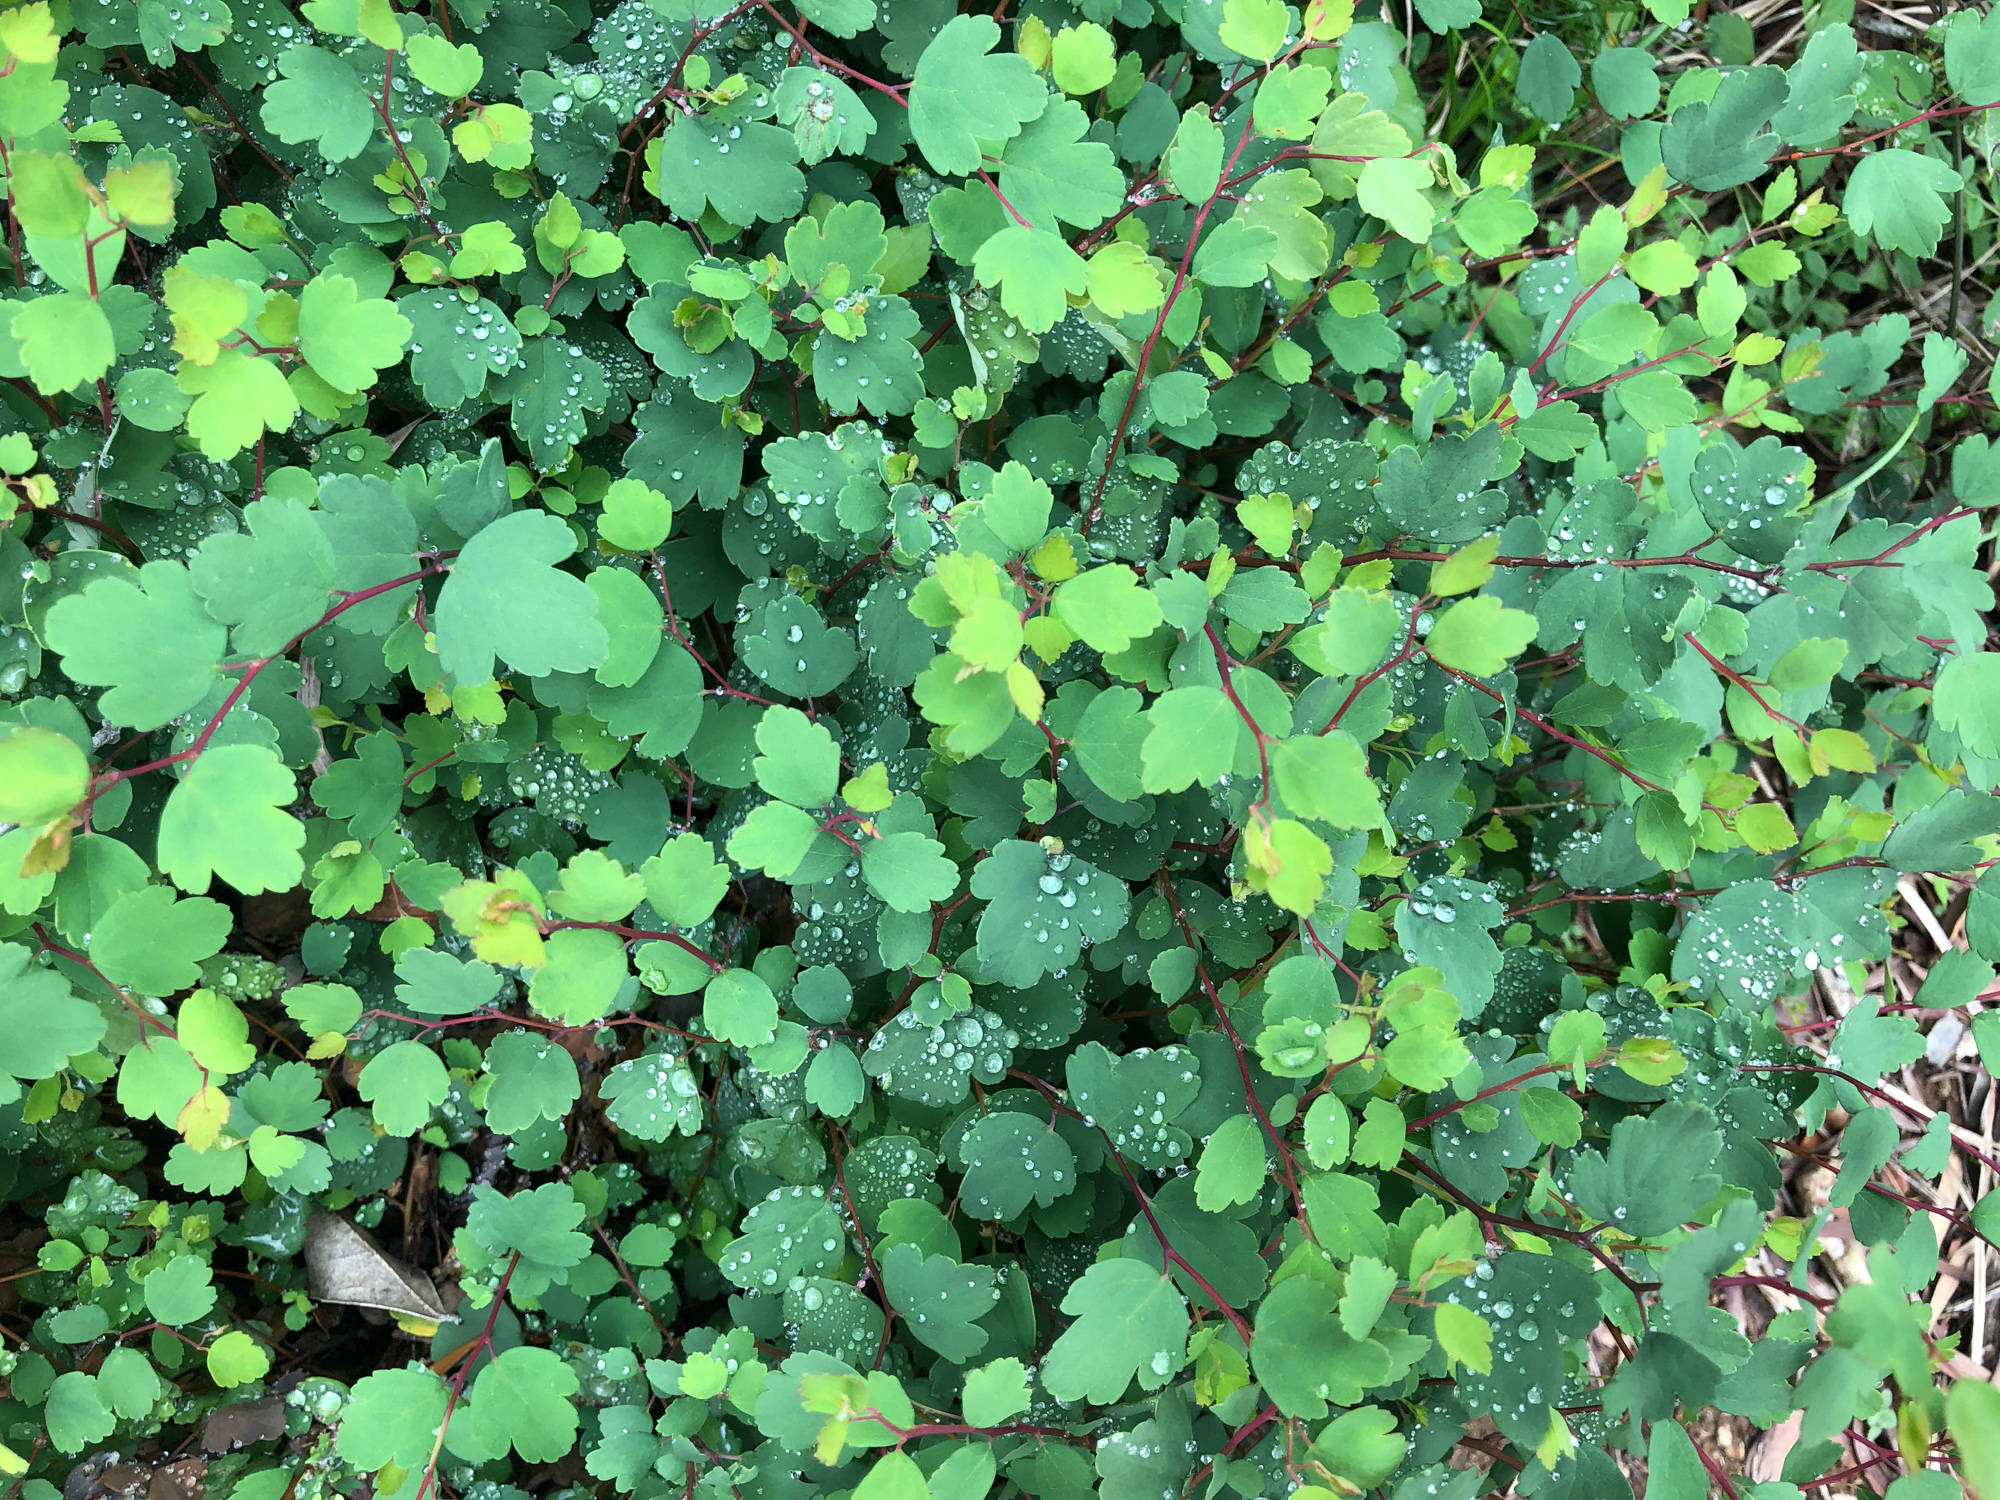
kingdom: Plantae
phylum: Tracheophyta
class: Magnoliopsida
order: Rosales
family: Rosaceae
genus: Spiraea
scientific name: Spiraea blumei
